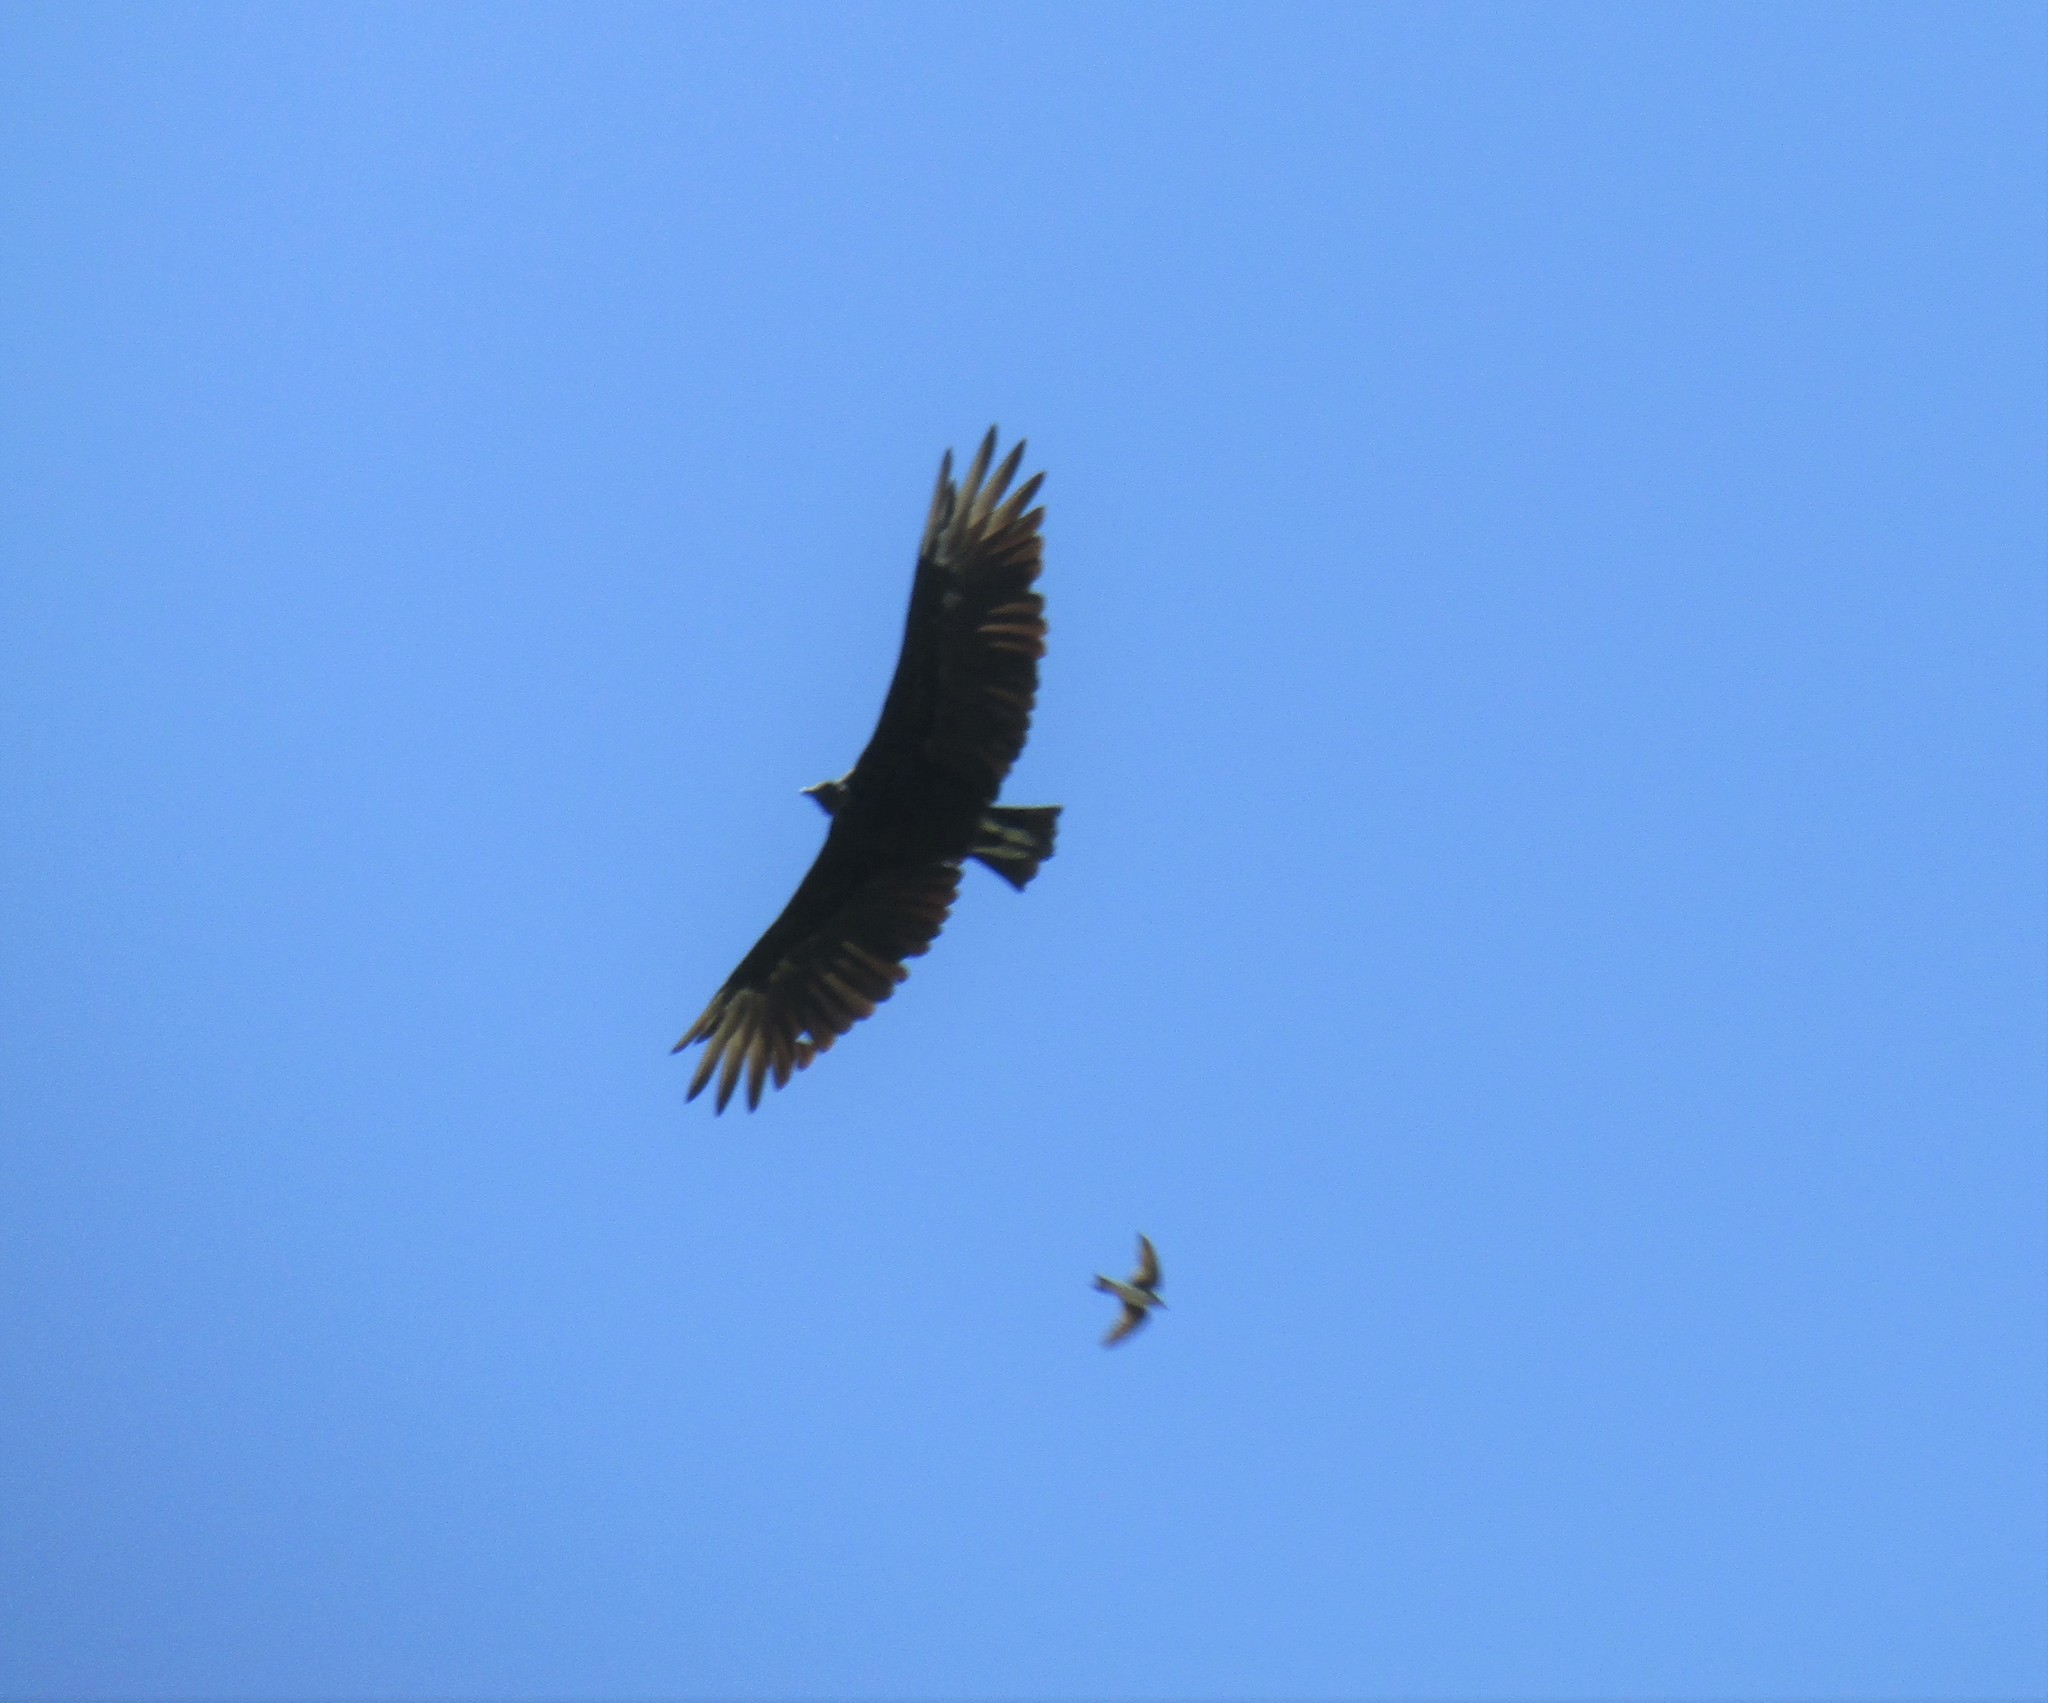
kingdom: Animalia
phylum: Chordata
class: Aves
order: Accipitriformes
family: Cathartidae
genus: Coragyps
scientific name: Coragyps atratus
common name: Black vulture
